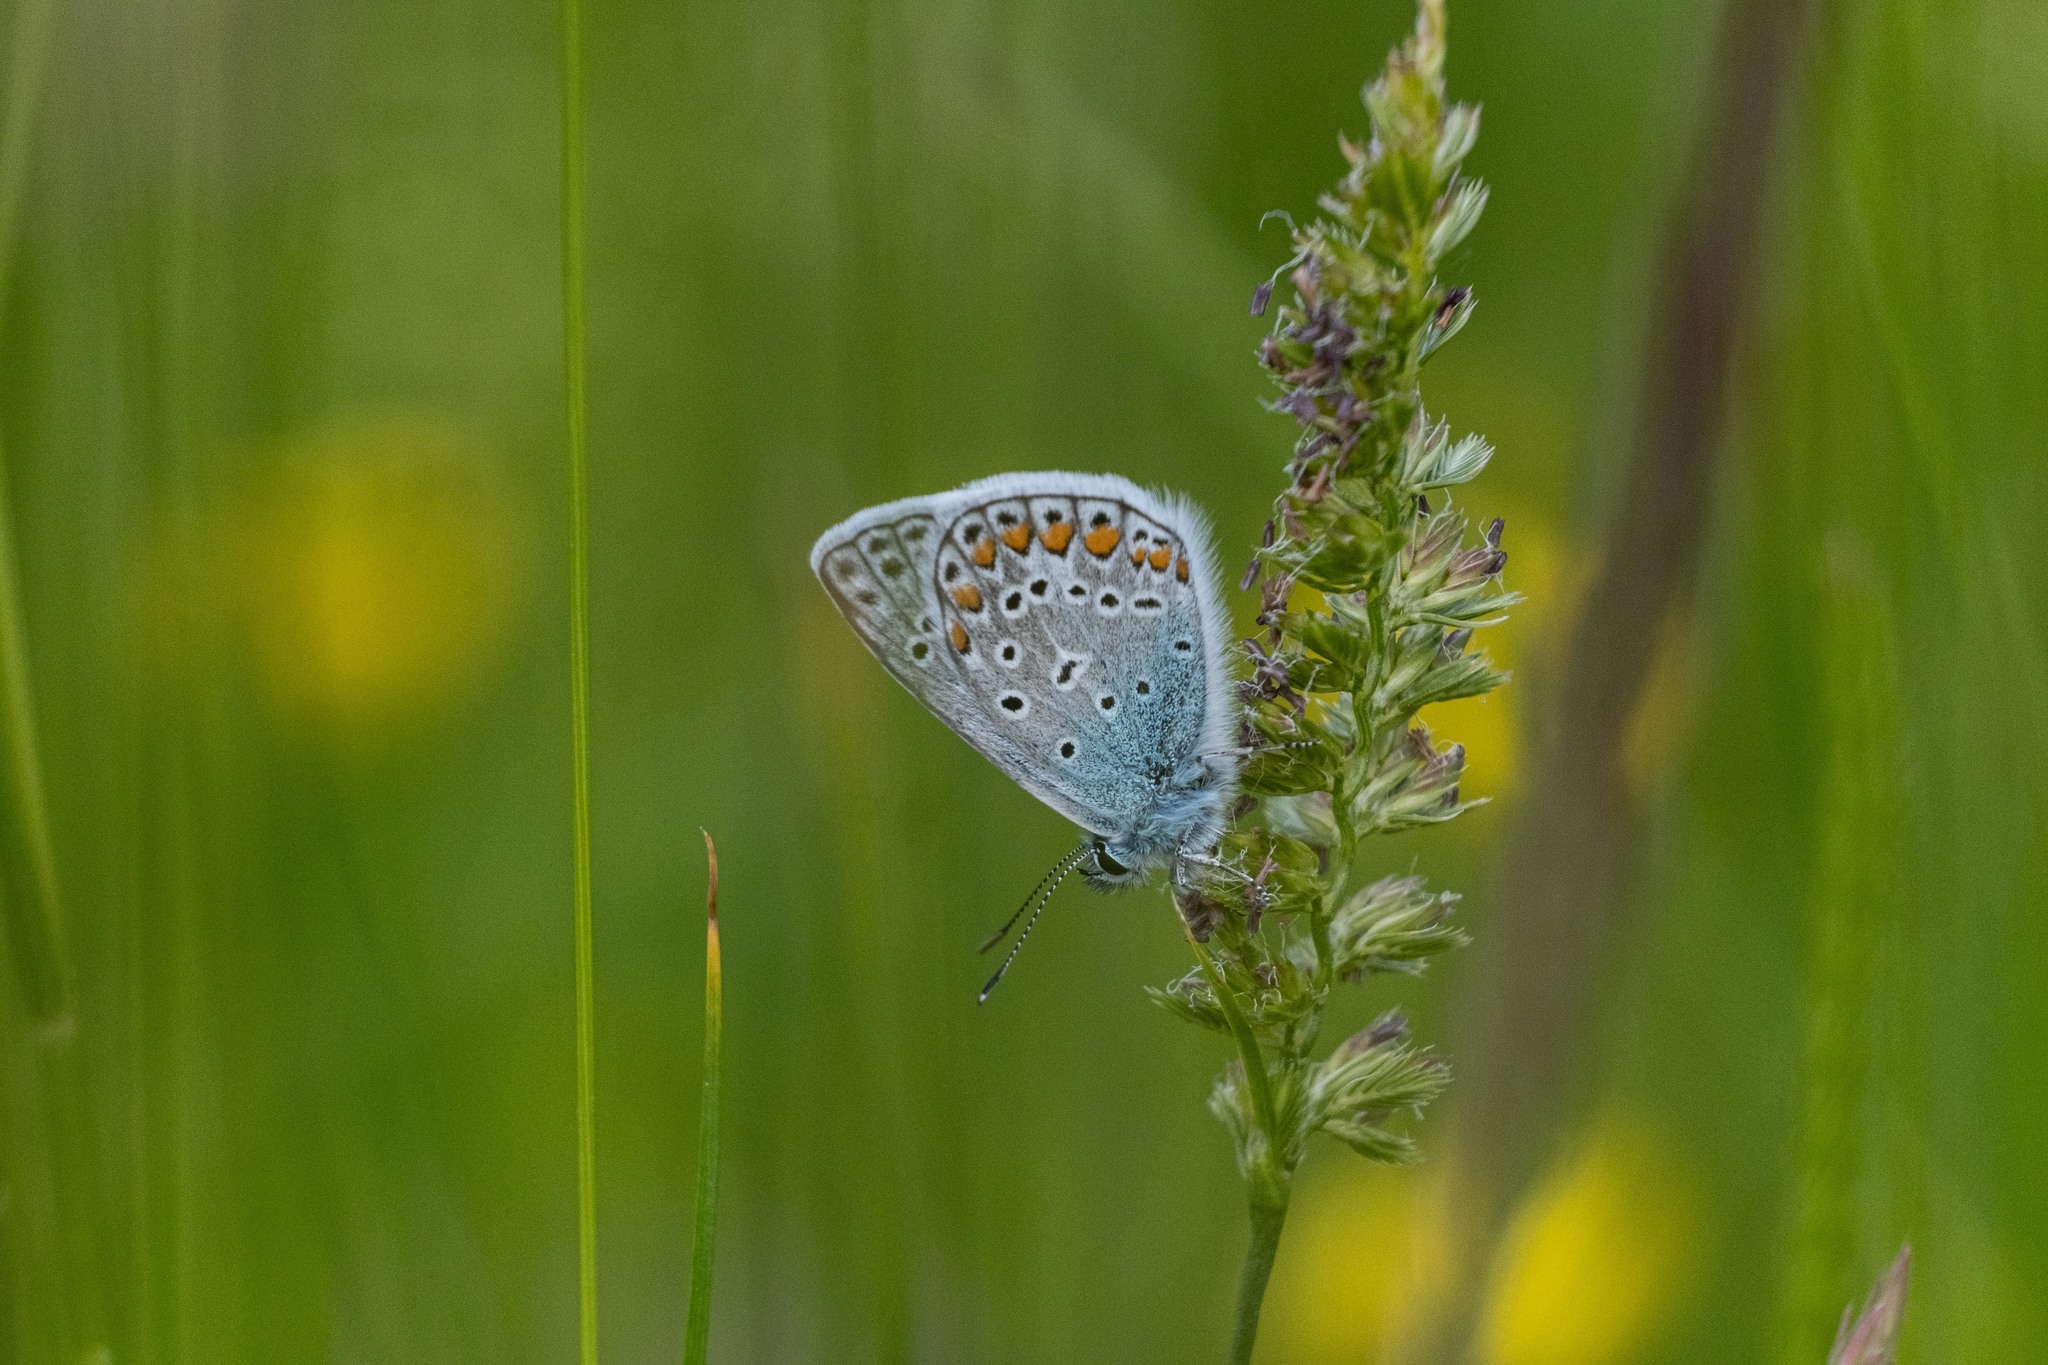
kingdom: Animalia
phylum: Arthropoda
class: Insecta
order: Lepidoptera
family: Lycaenidae
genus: Polyommatus
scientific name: Polyommatus icarus
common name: Common blue
